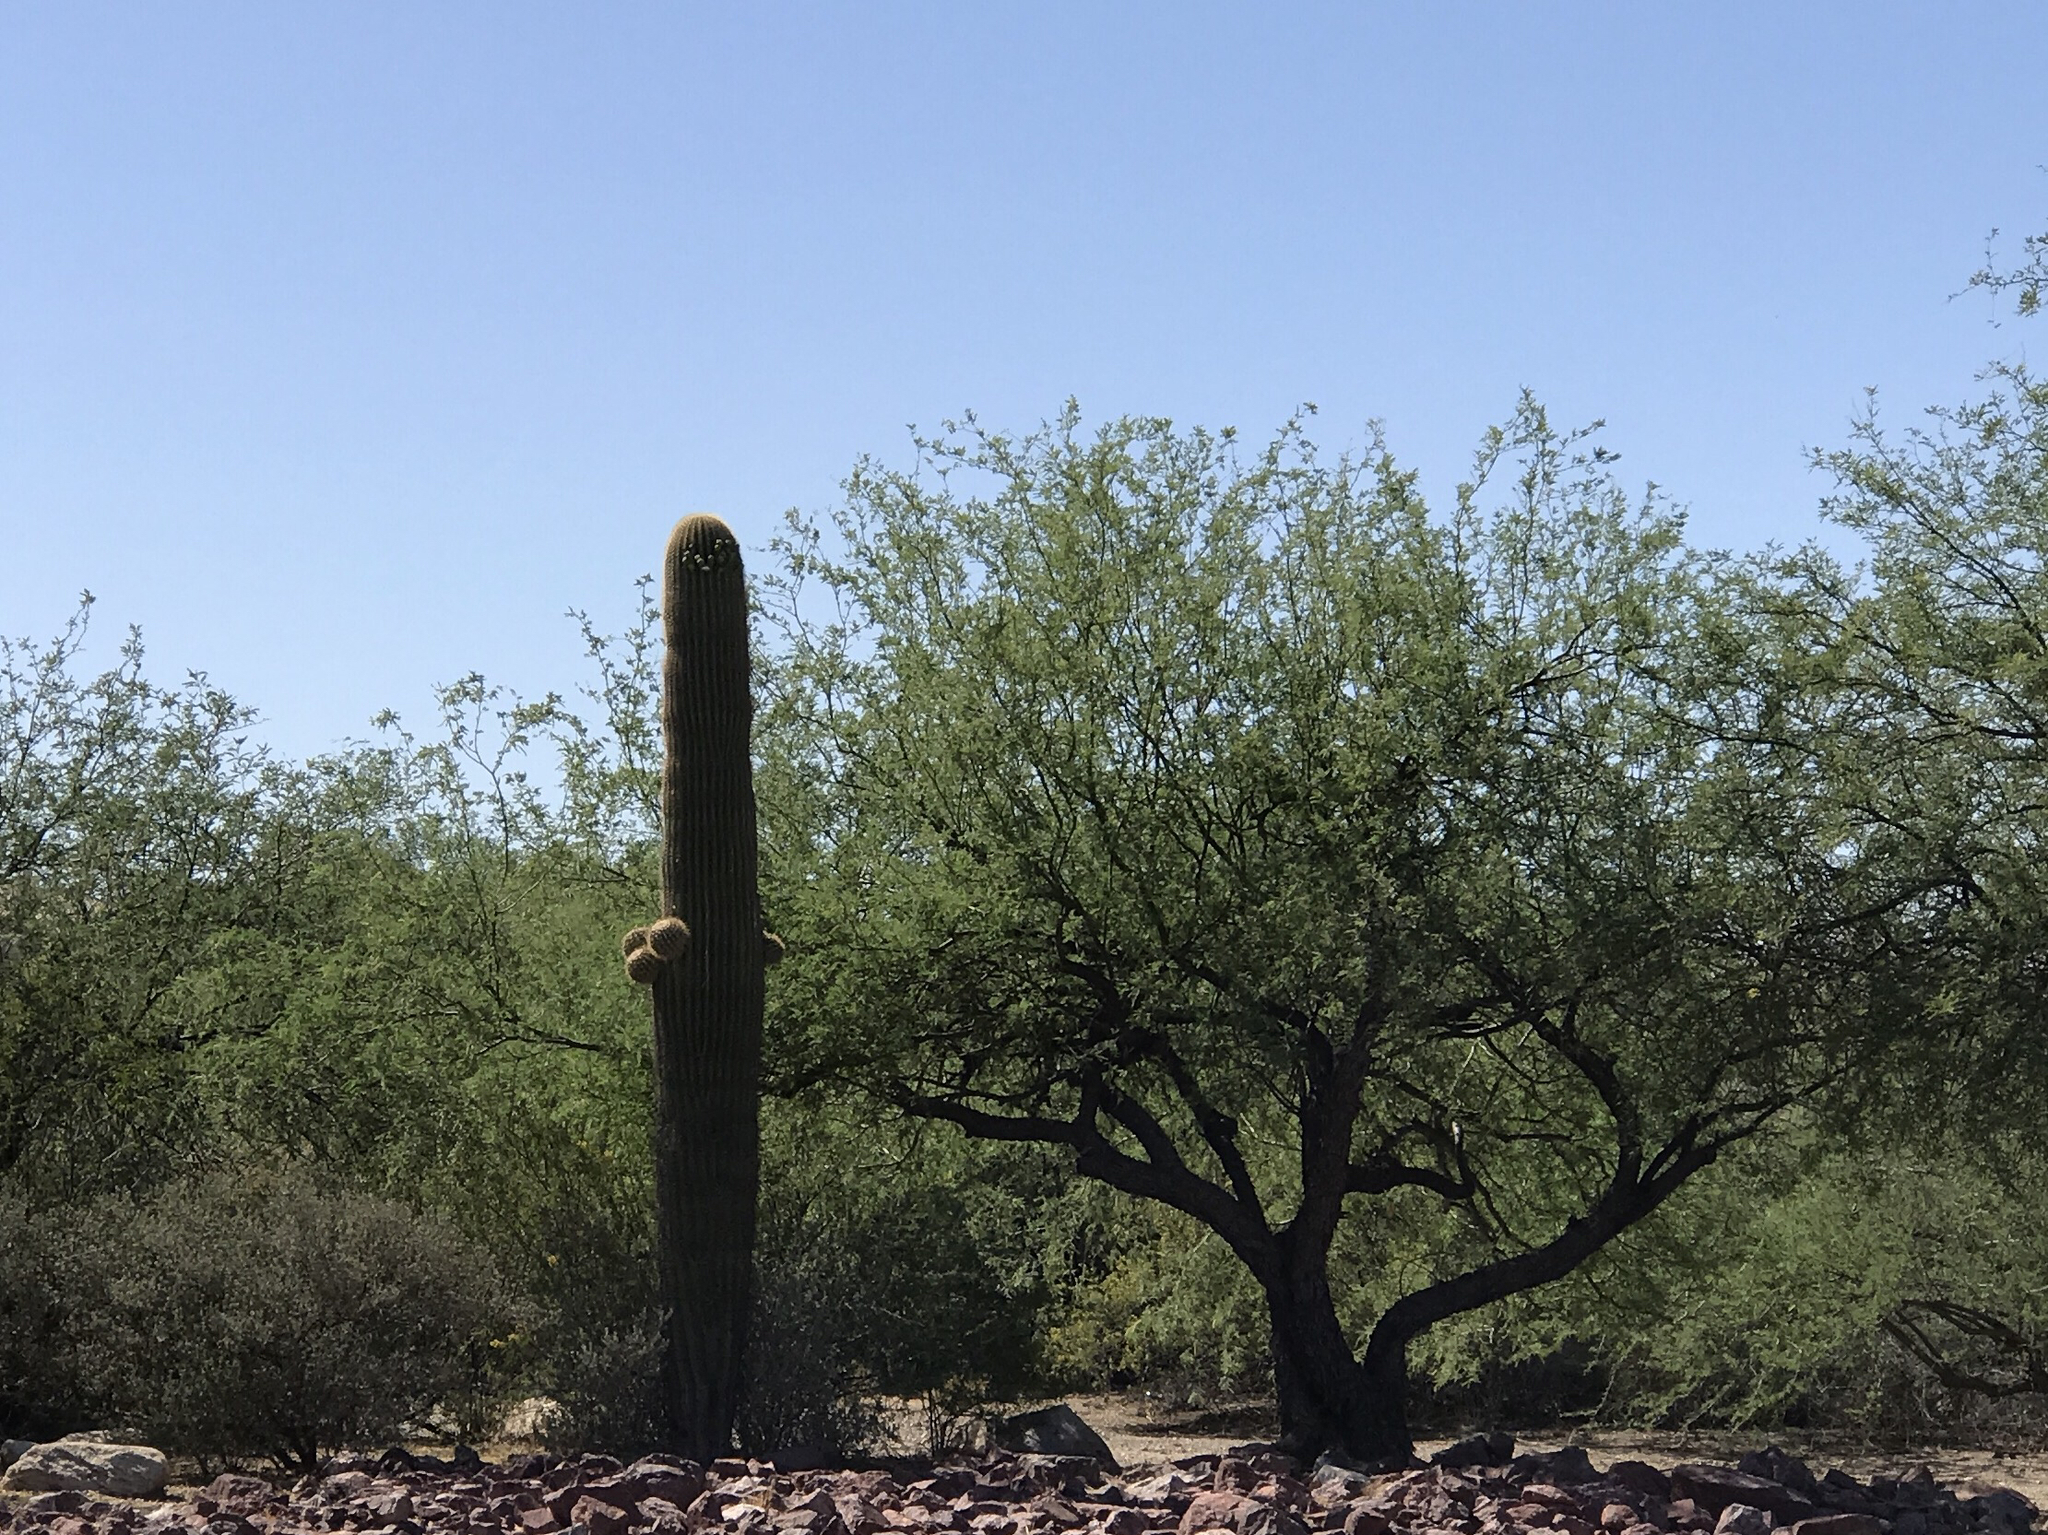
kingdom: Plantae
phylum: Tracheophyta
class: Magnoliopsida
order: Fabales
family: Fabaceae
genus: Prosopis
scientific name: Prosopis velutina
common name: Velvet mesquite
